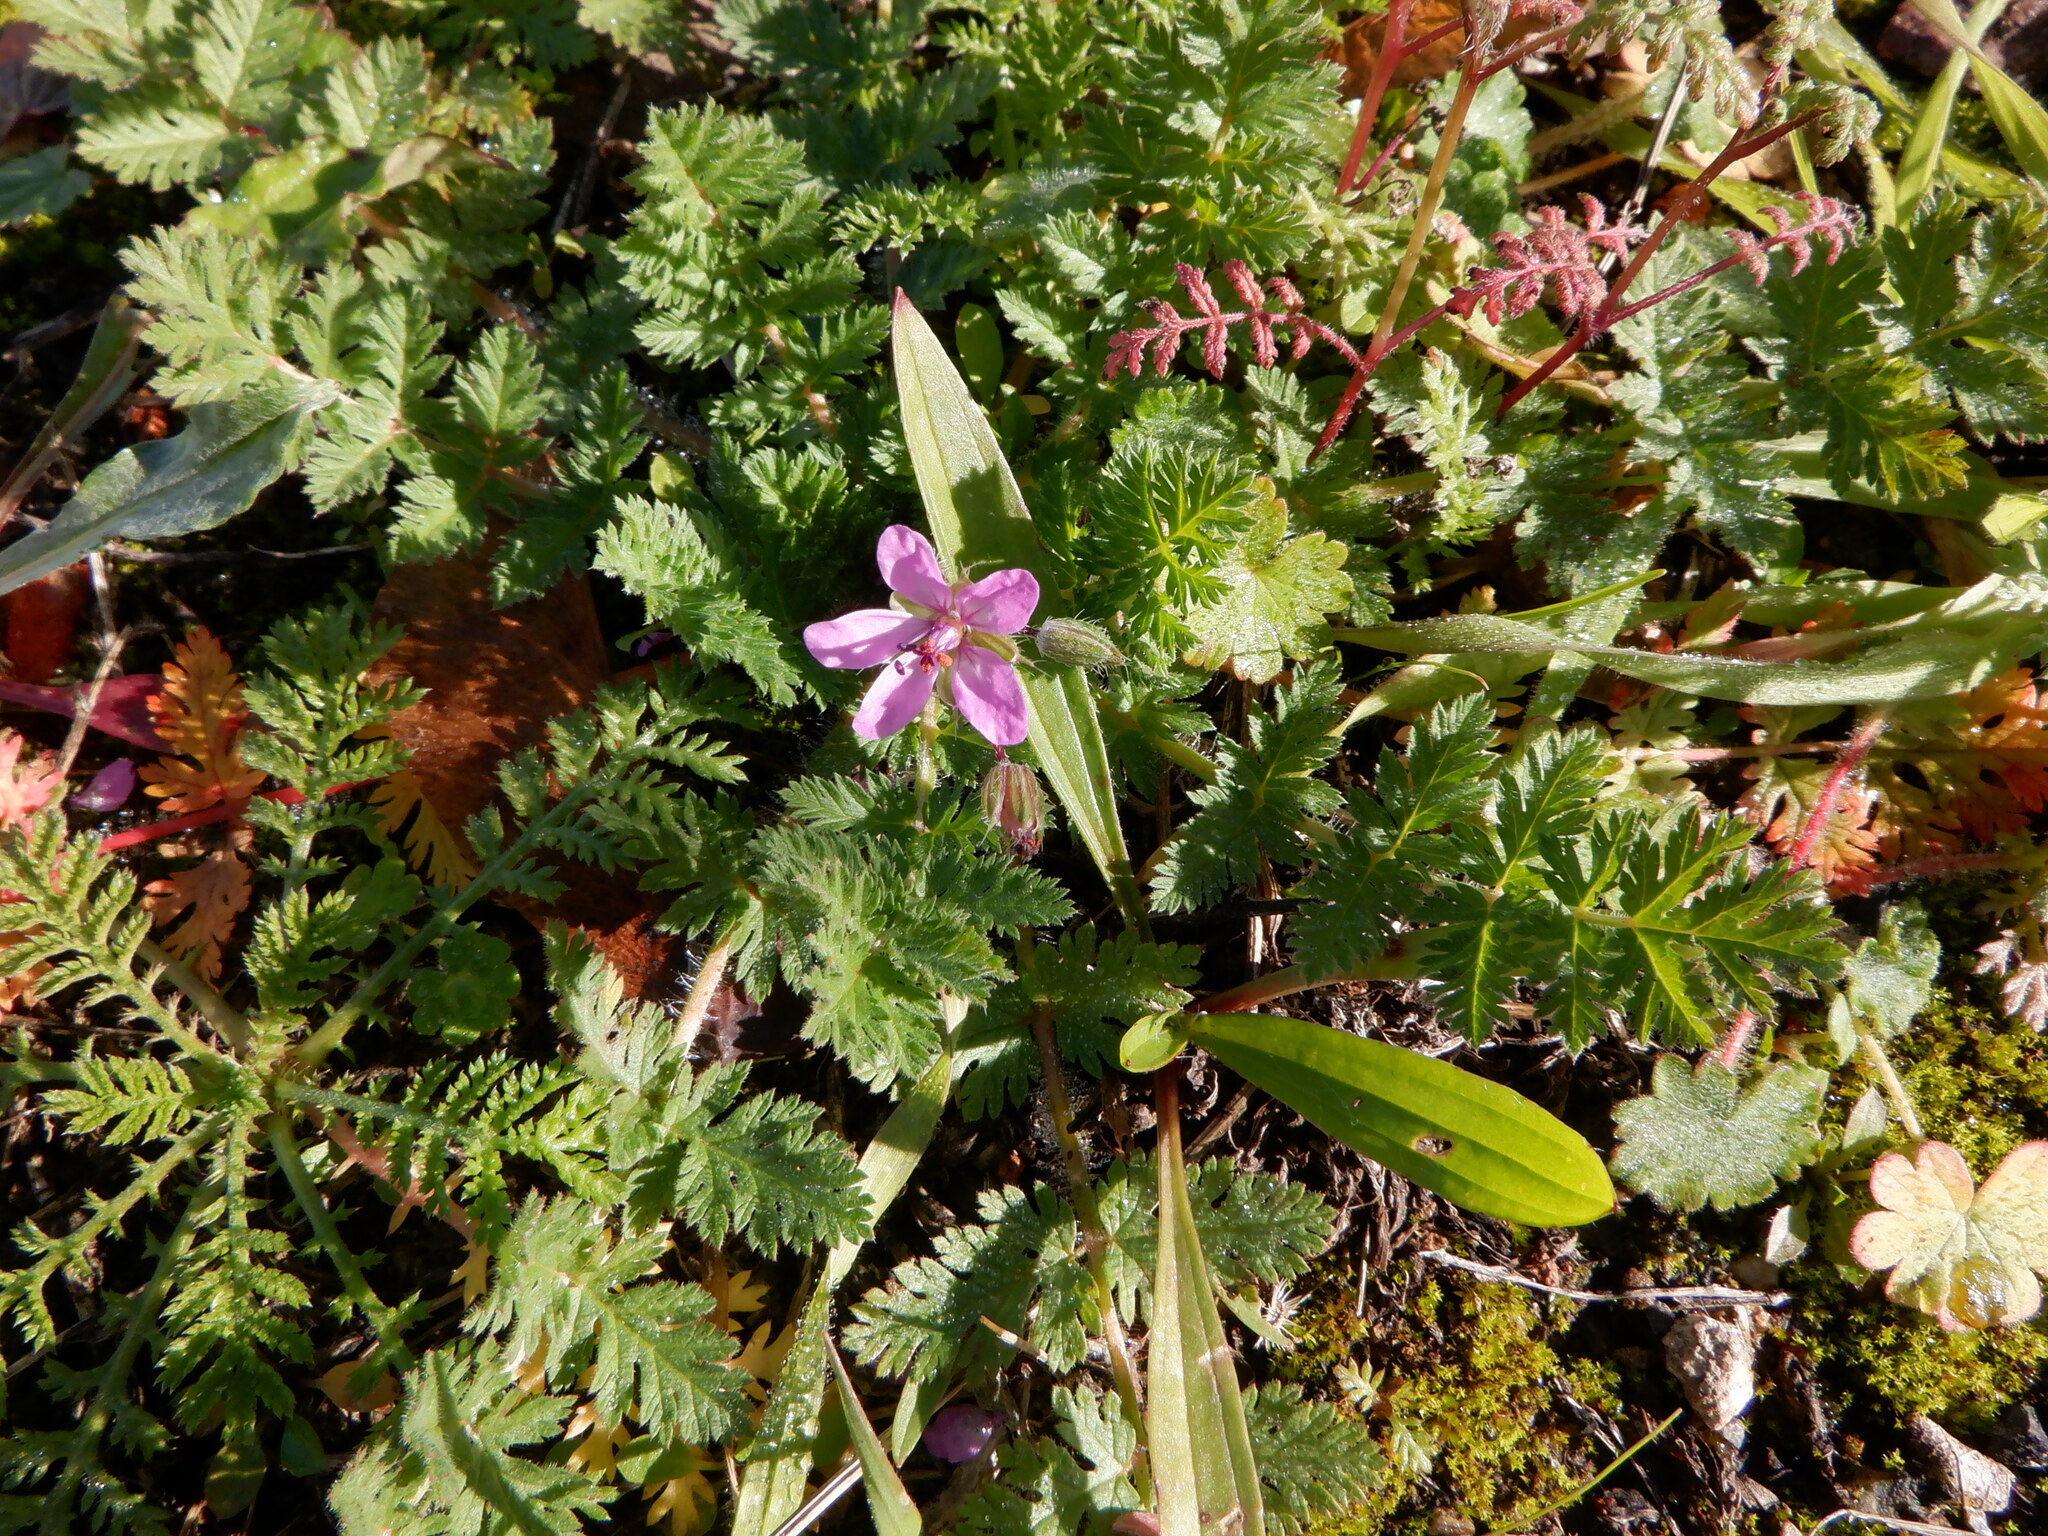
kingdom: Plantae
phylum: Tracheophyta
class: Magnoliopsida
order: Geraniales
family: Geraniaceae
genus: Erodium
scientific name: Erodium cicutarium
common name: Common stork's-bill
